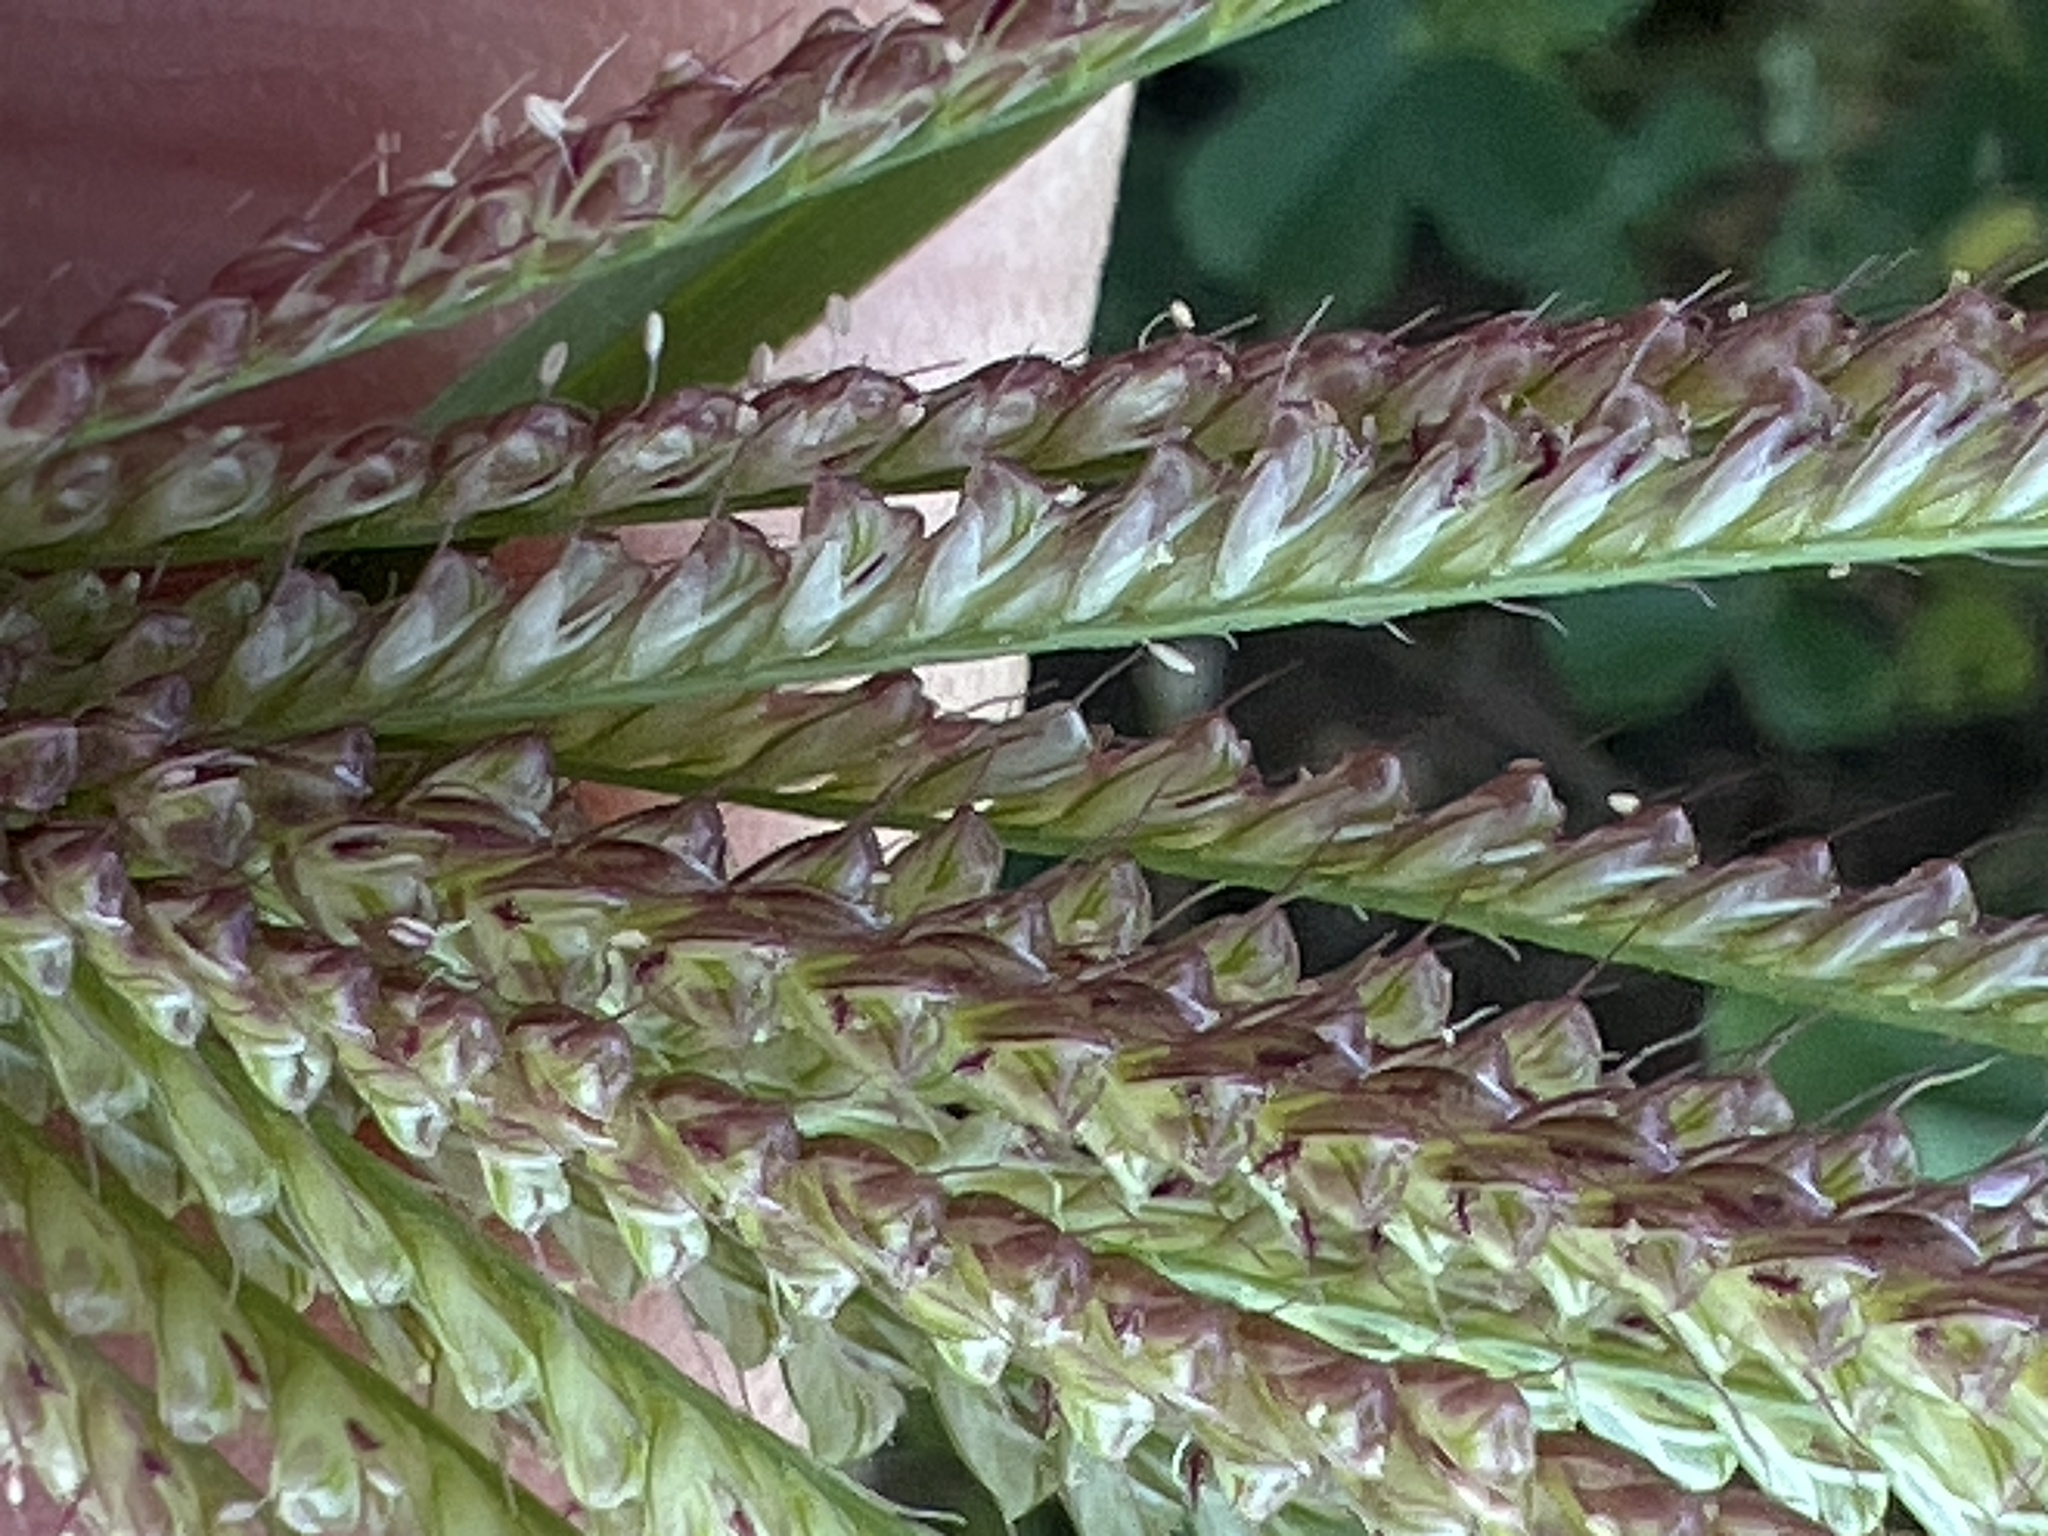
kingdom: Plantae
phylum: Tracheophyta
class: Liliopsida
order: Poales
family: Poaceae
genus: Chloris
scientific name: Chloris cucullata
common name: Hooded windmill grass
